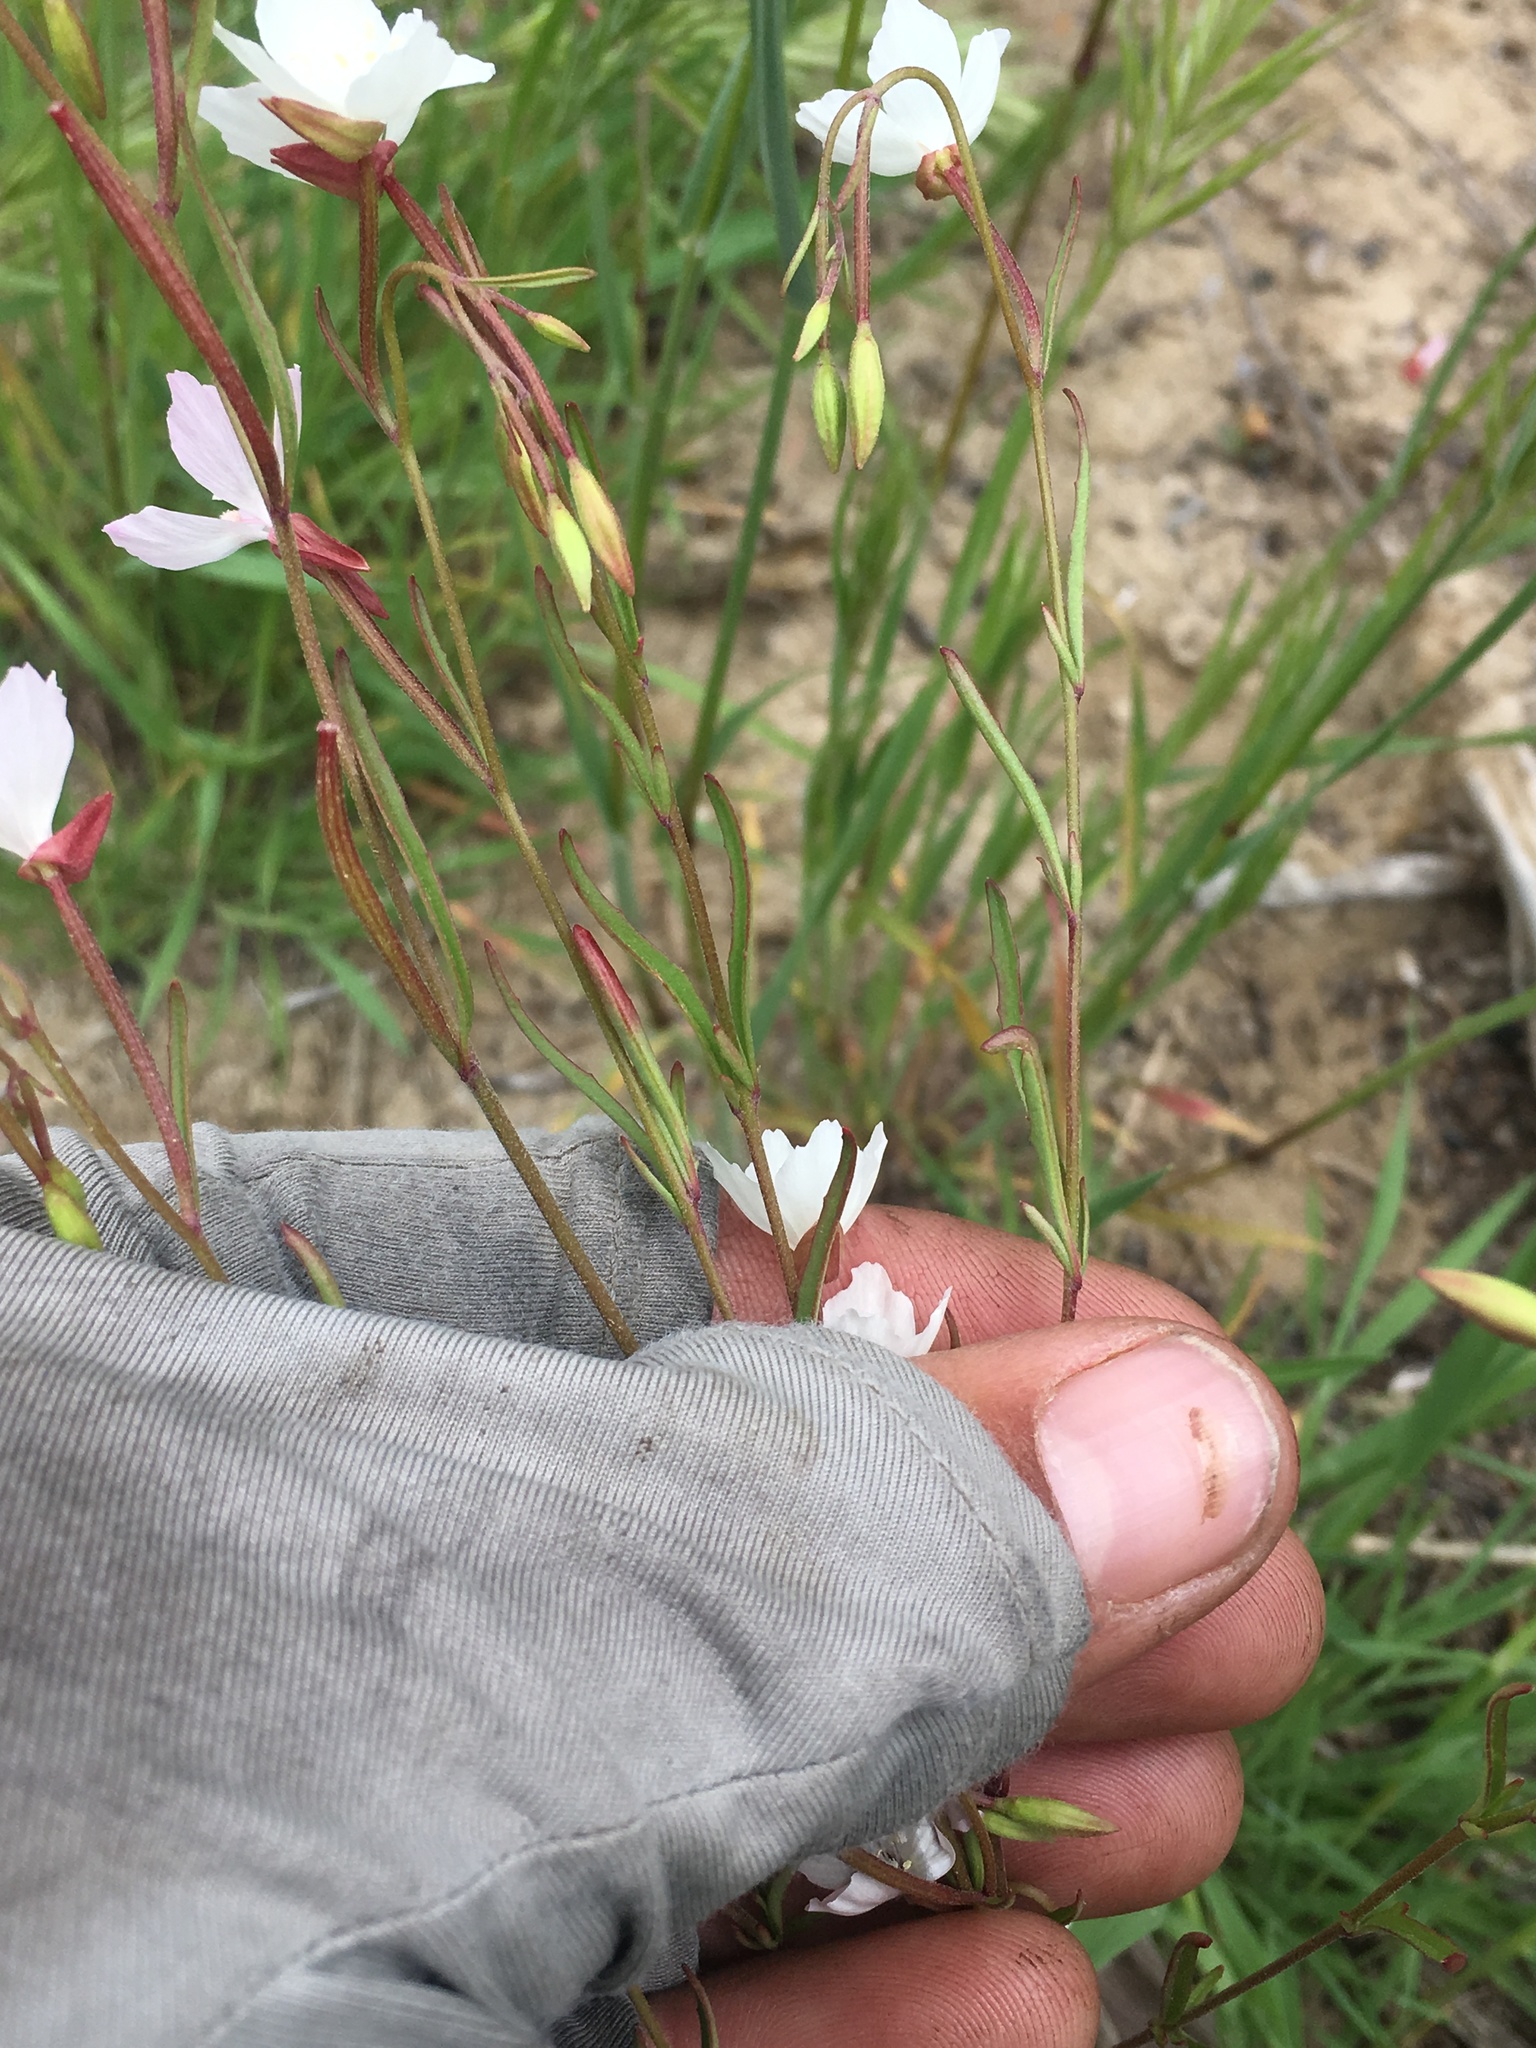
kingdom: Plantae
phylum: Tracheophyta
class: Magnoliopsida
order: Myrtales
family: Onagraceae
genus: Clarkia
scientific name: Clarkia epilobioides
